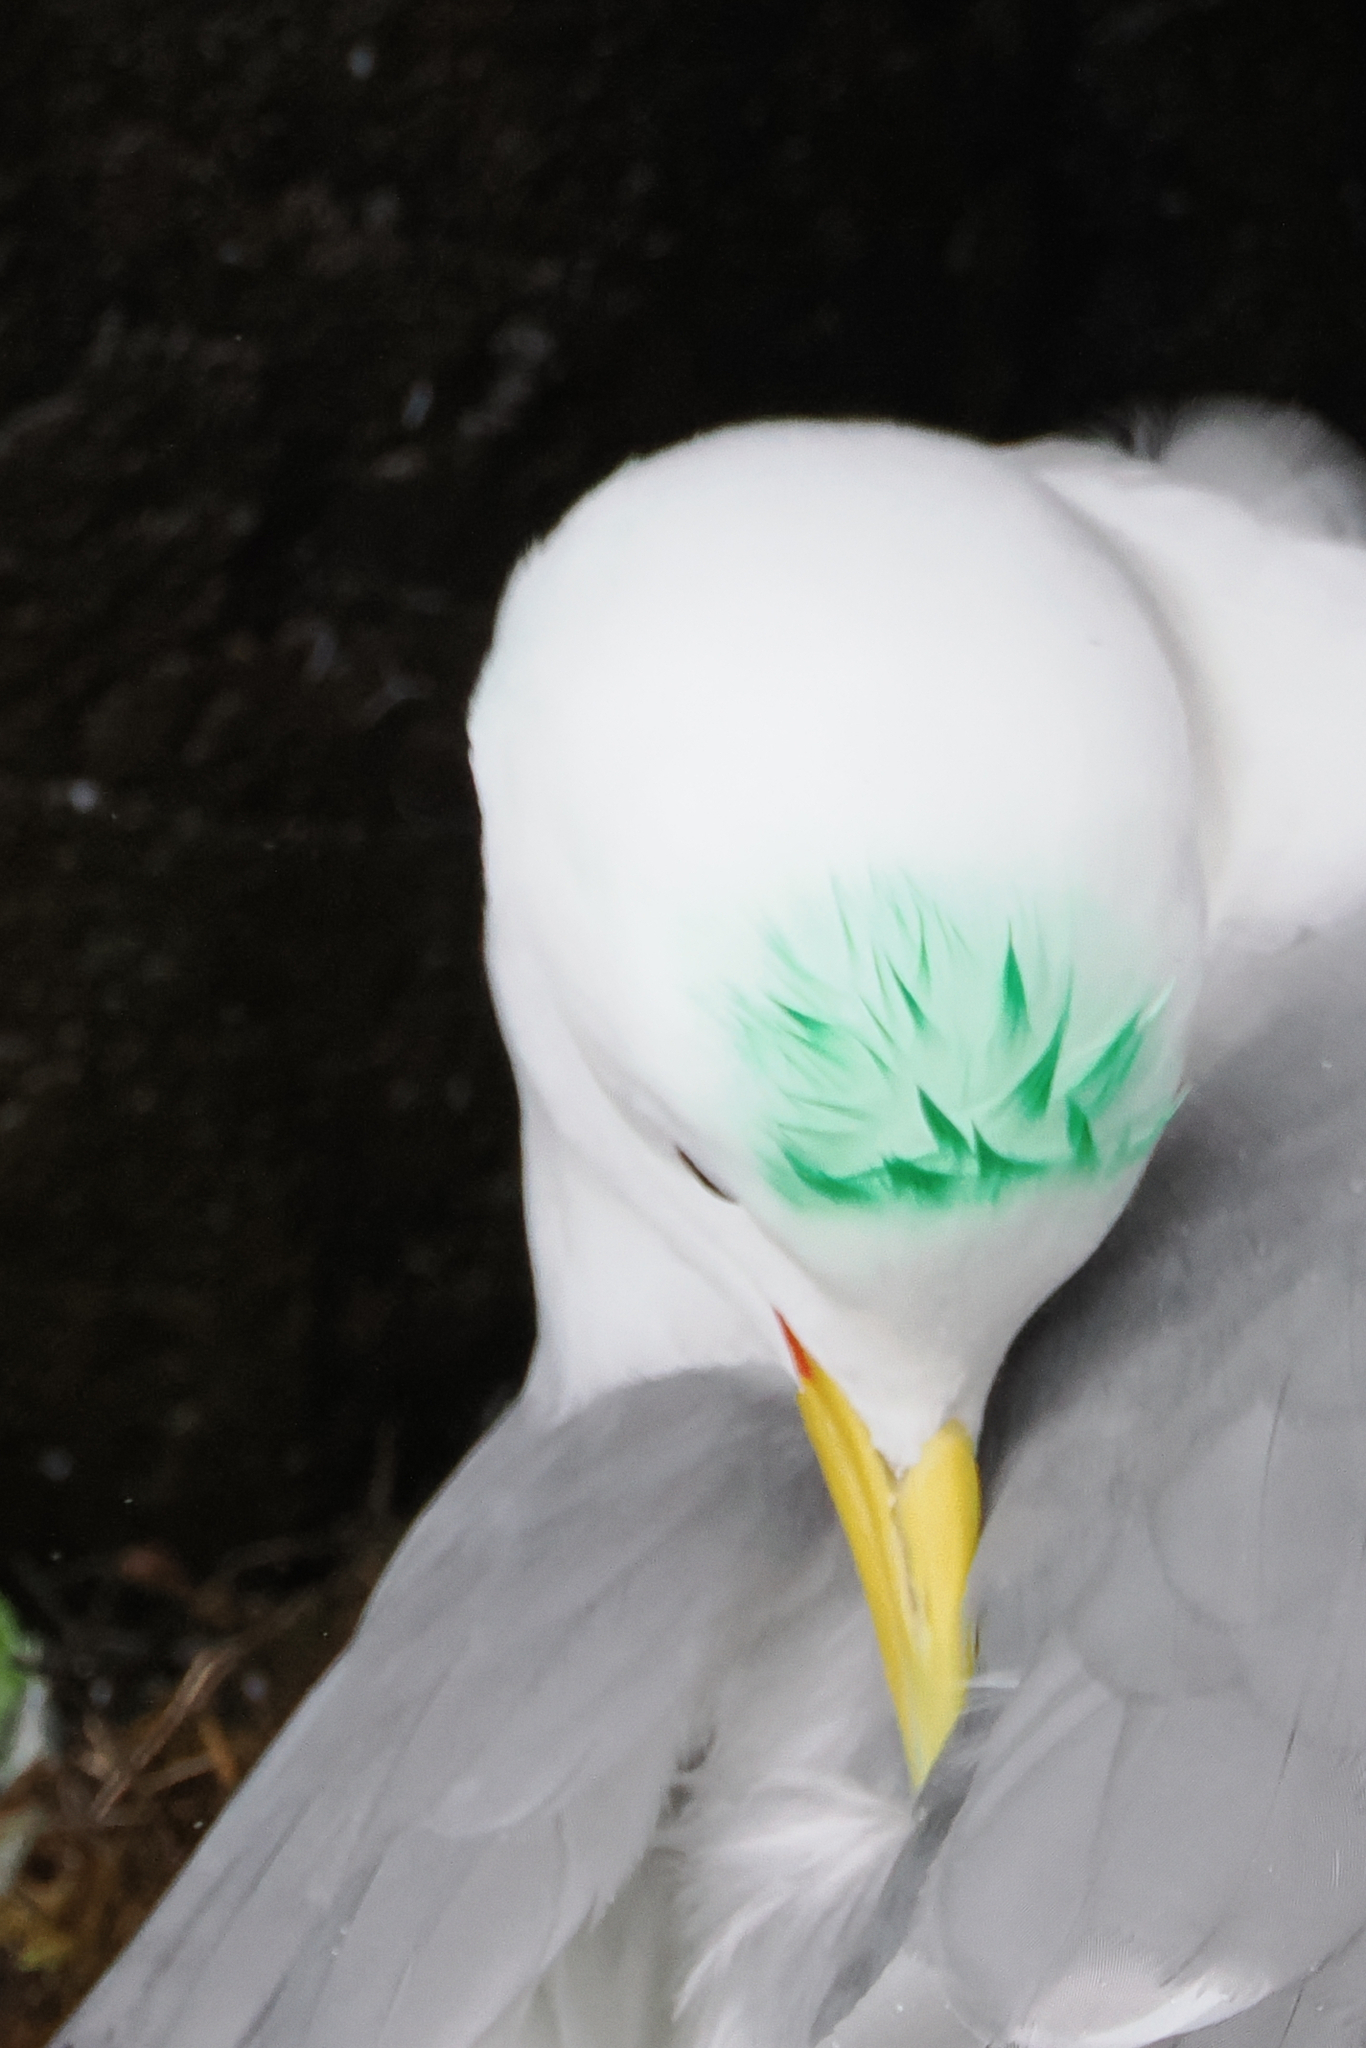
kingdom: Animalia
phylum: Chordata
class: Aves
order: Charadriiformes
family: Laridae
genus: Rissa
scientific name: Rissa tridactyla
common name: Black-legged kittiwake
